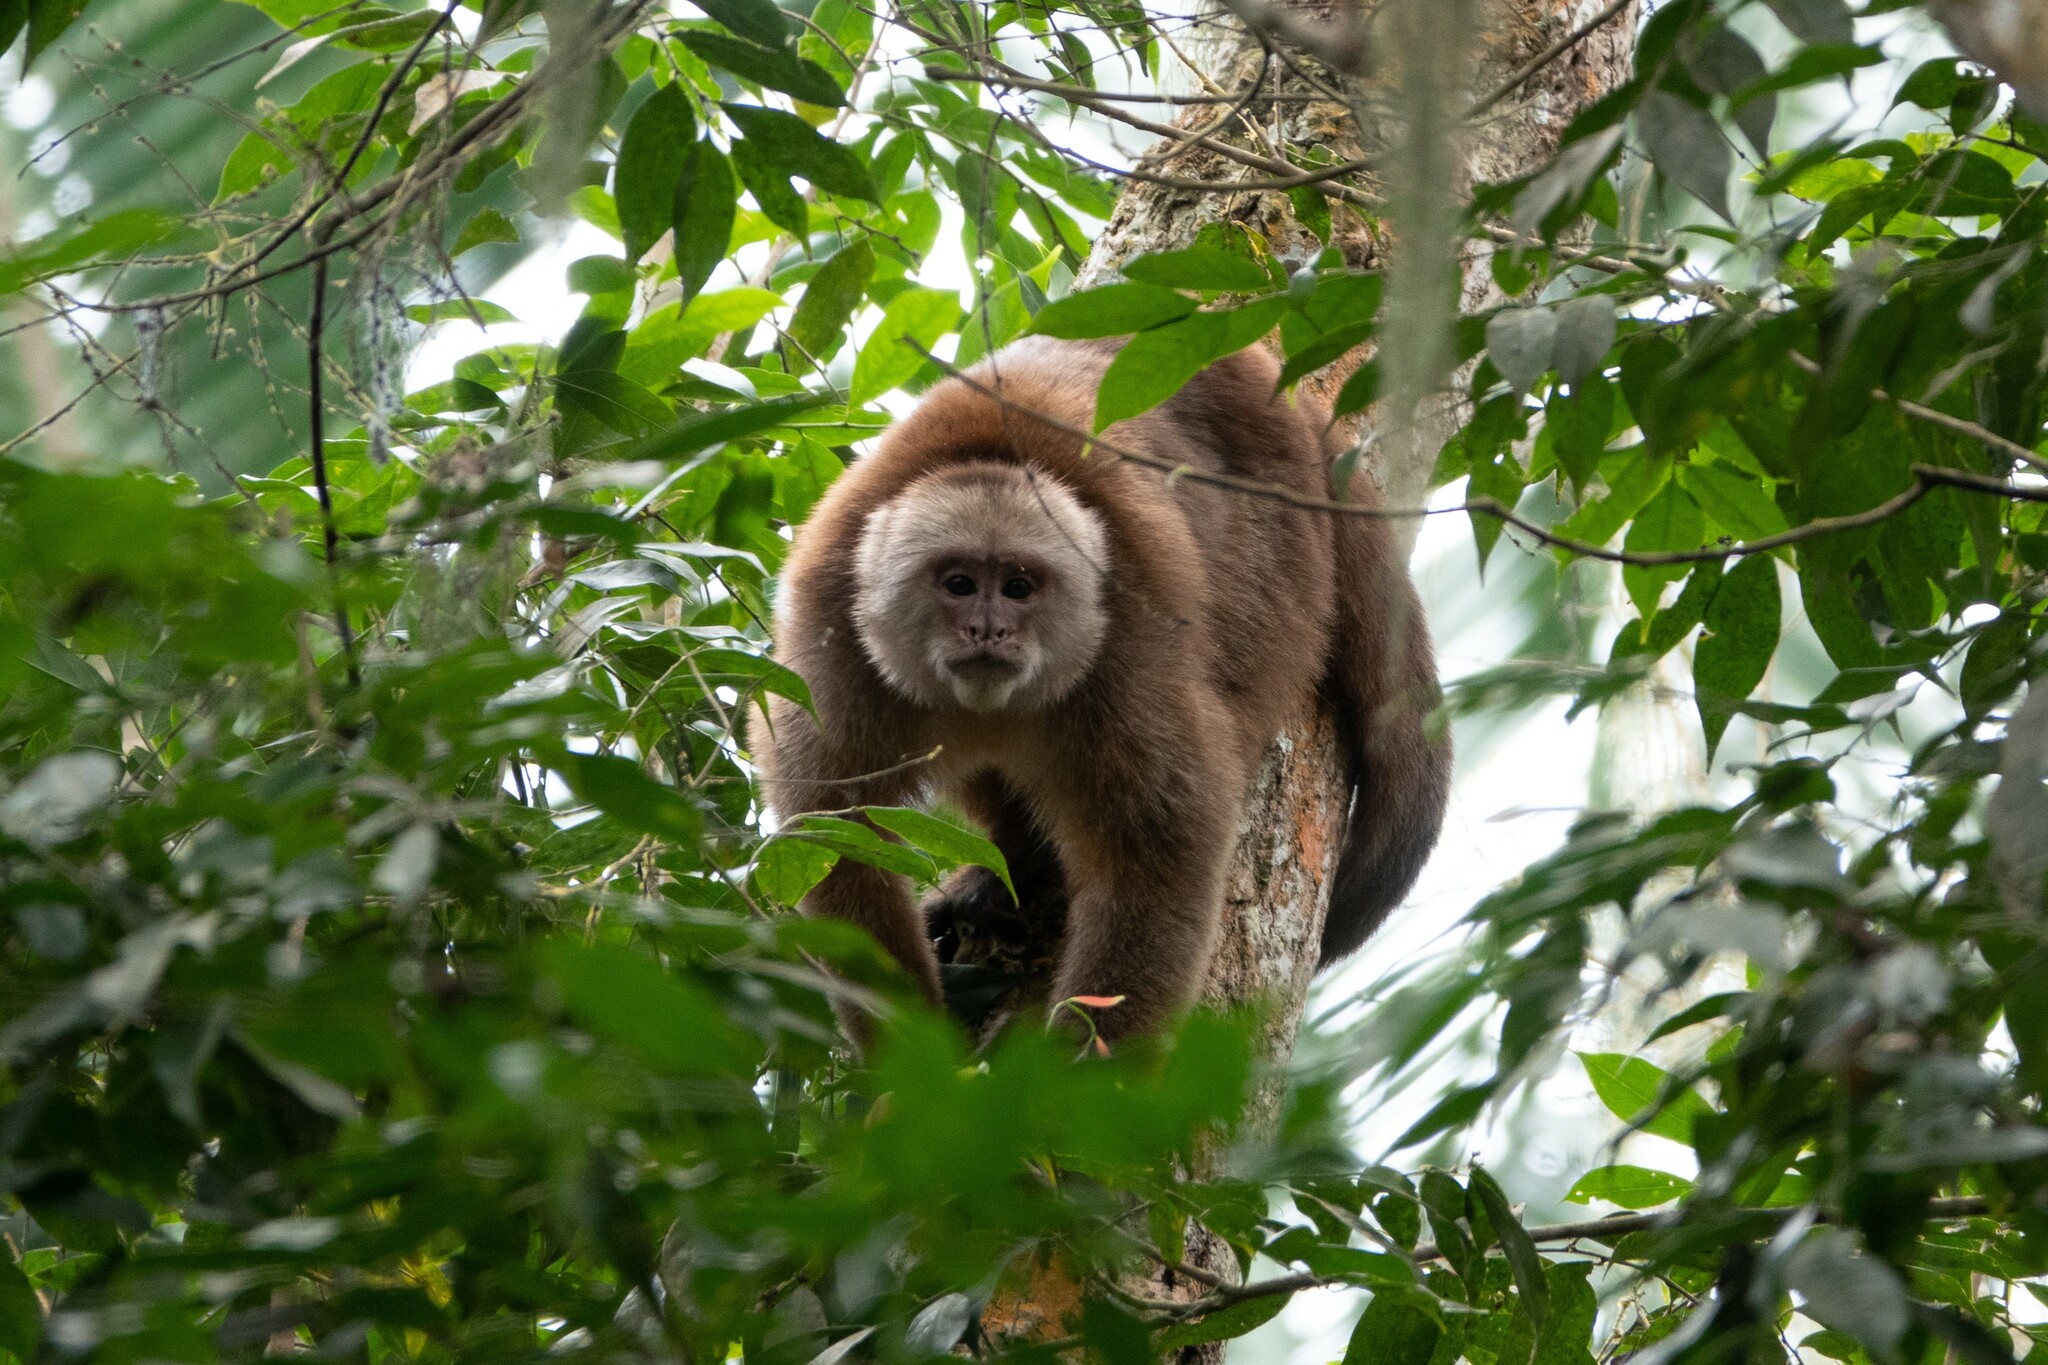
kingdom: Animalia
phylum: Chordata
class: Mammalia
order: Primates
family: Cebidae
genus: Cebus
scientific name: Cebus aequatorialis
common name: Ecuadorian white-fronted capuchin
